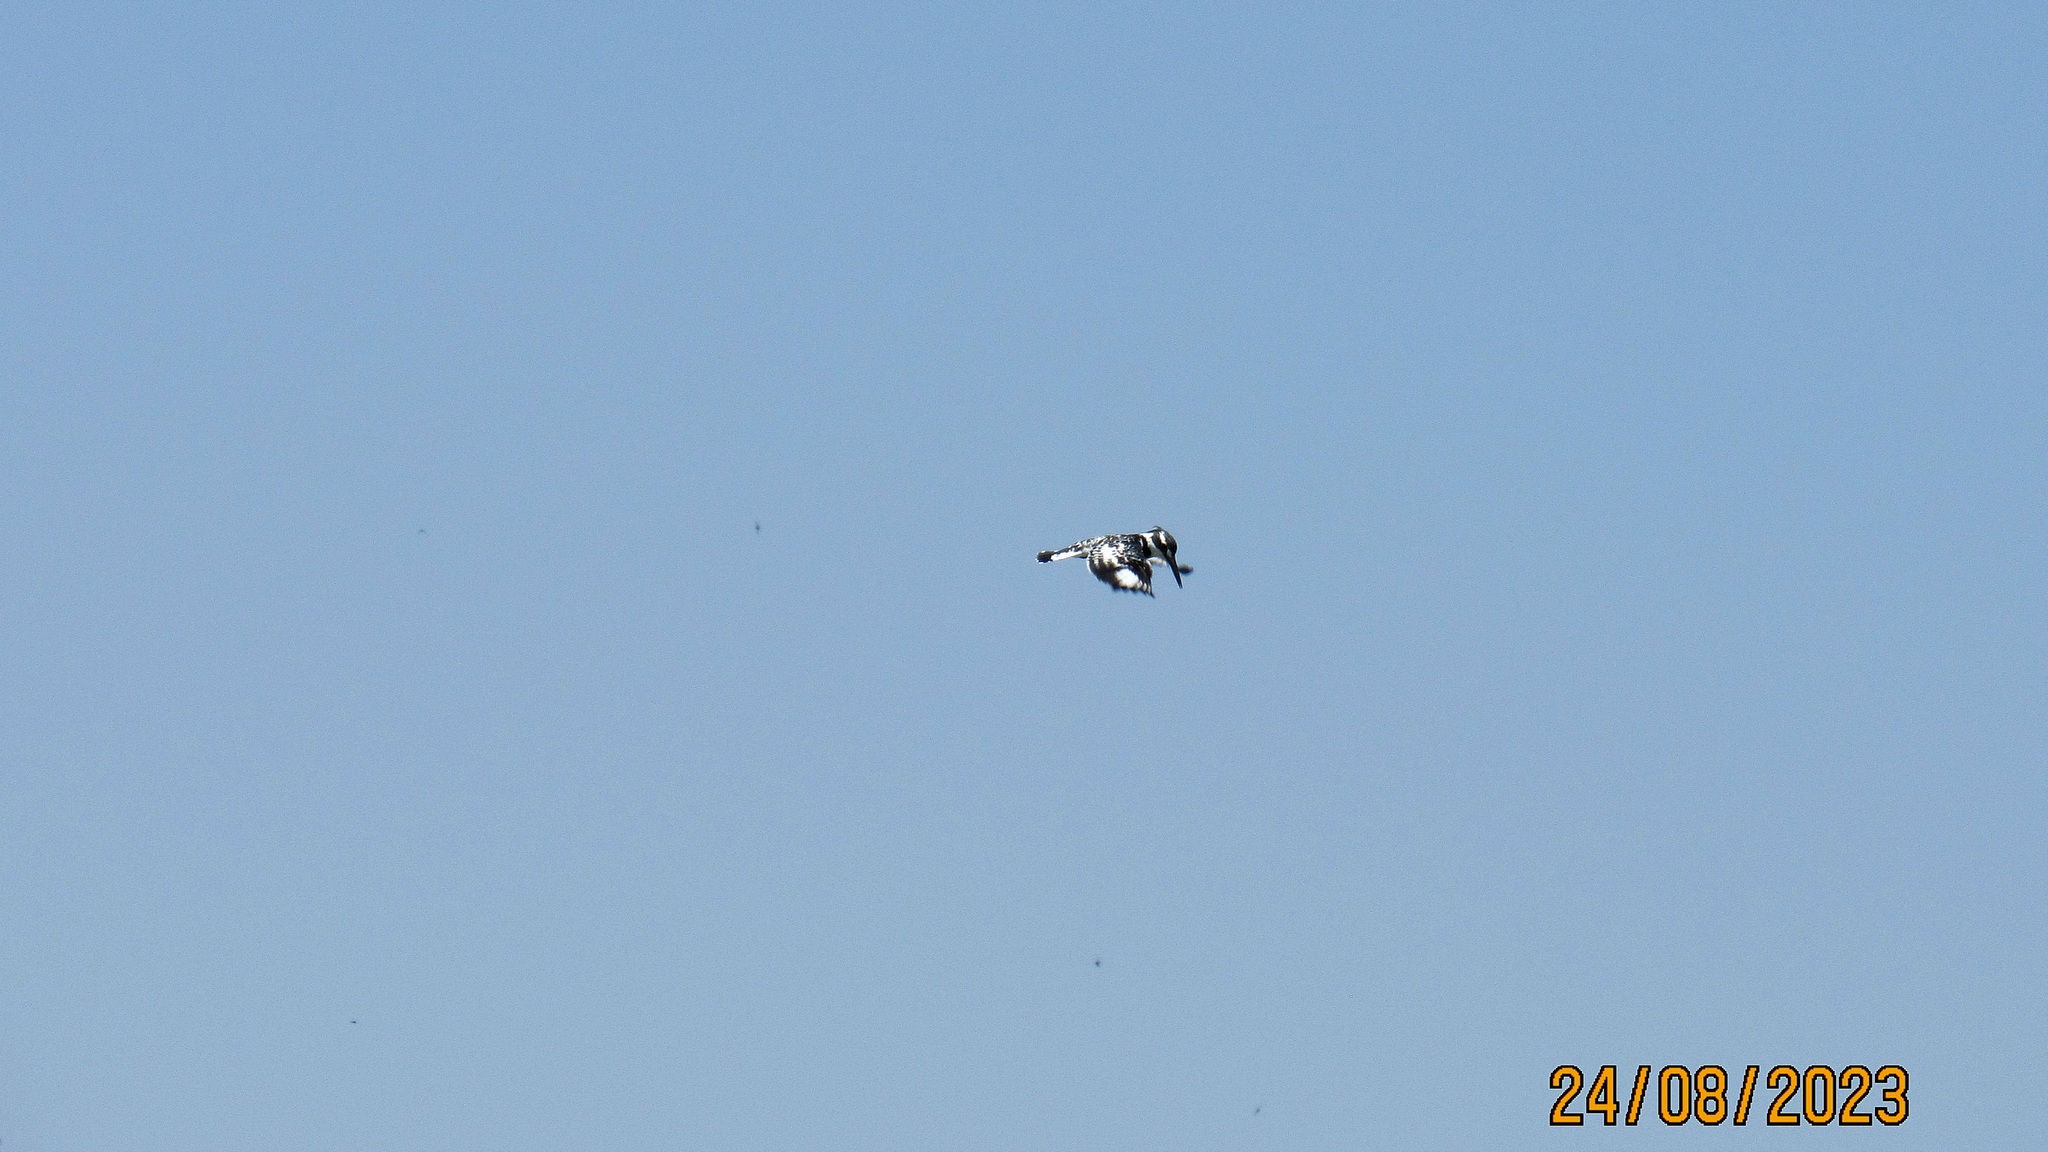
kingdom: Animalia
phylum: Chordata
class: Aves
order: Coraciiformes
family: Alcedinidae
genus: Ceryle
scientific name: Ceryle rudis
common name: Pied kingfisher
